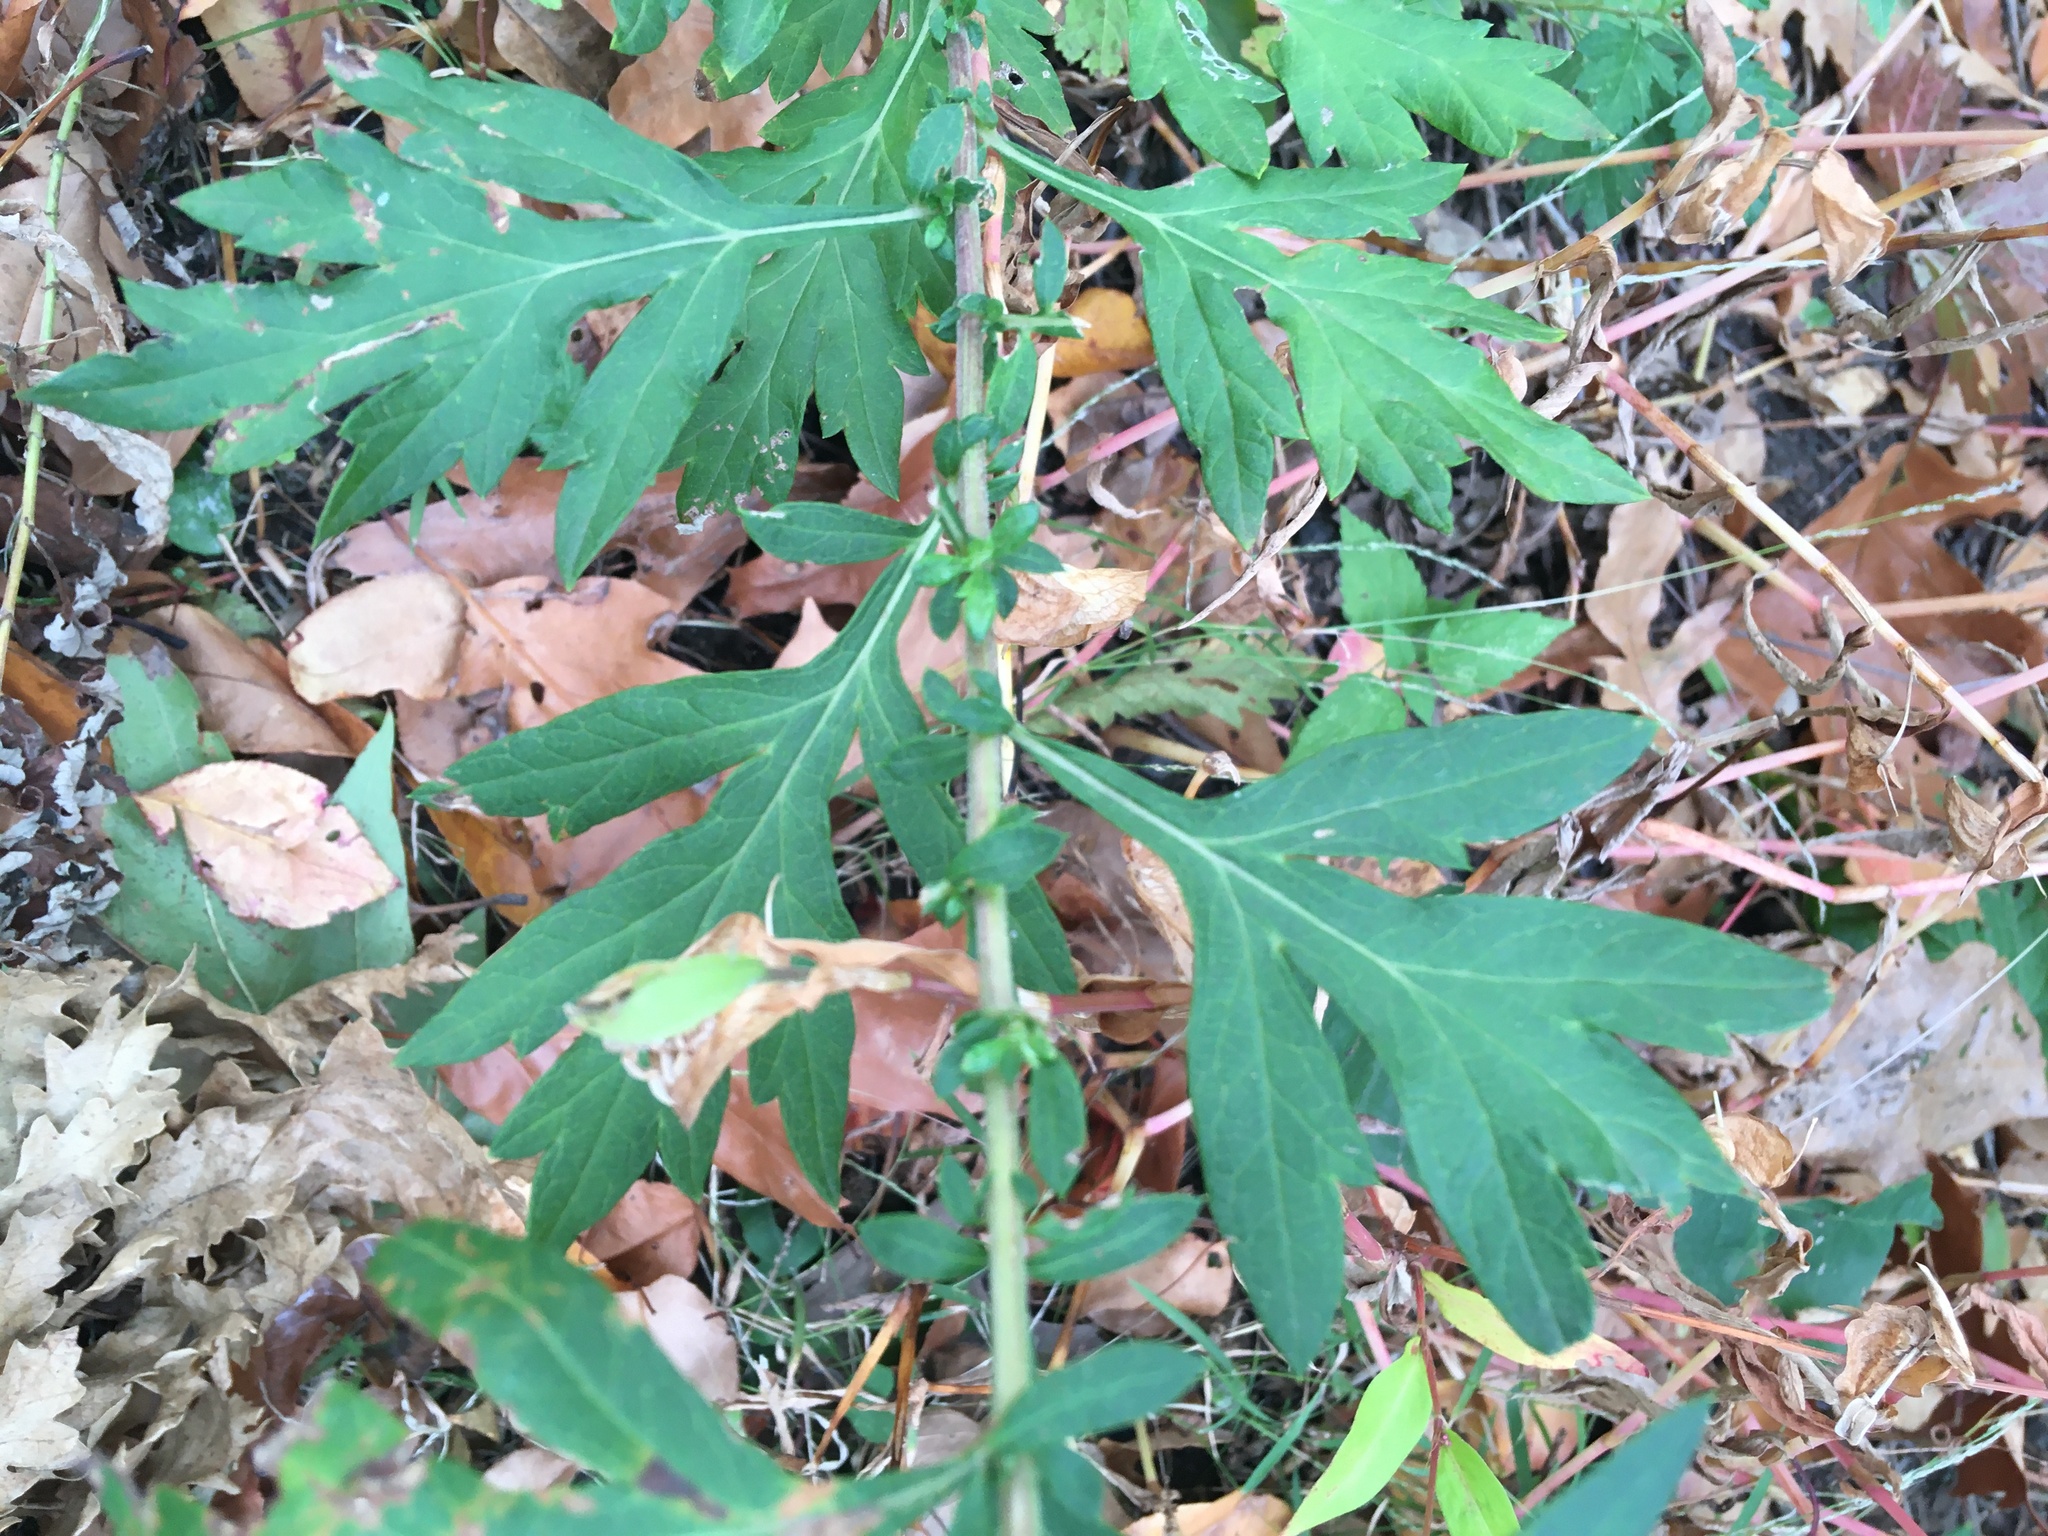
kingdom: Plantae
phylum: Tracheophyta
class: Magnoliopsida
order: Asterales
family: Asteraceae
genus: Artemisia
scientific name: Artemisia vulgaris
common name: Mugwort
